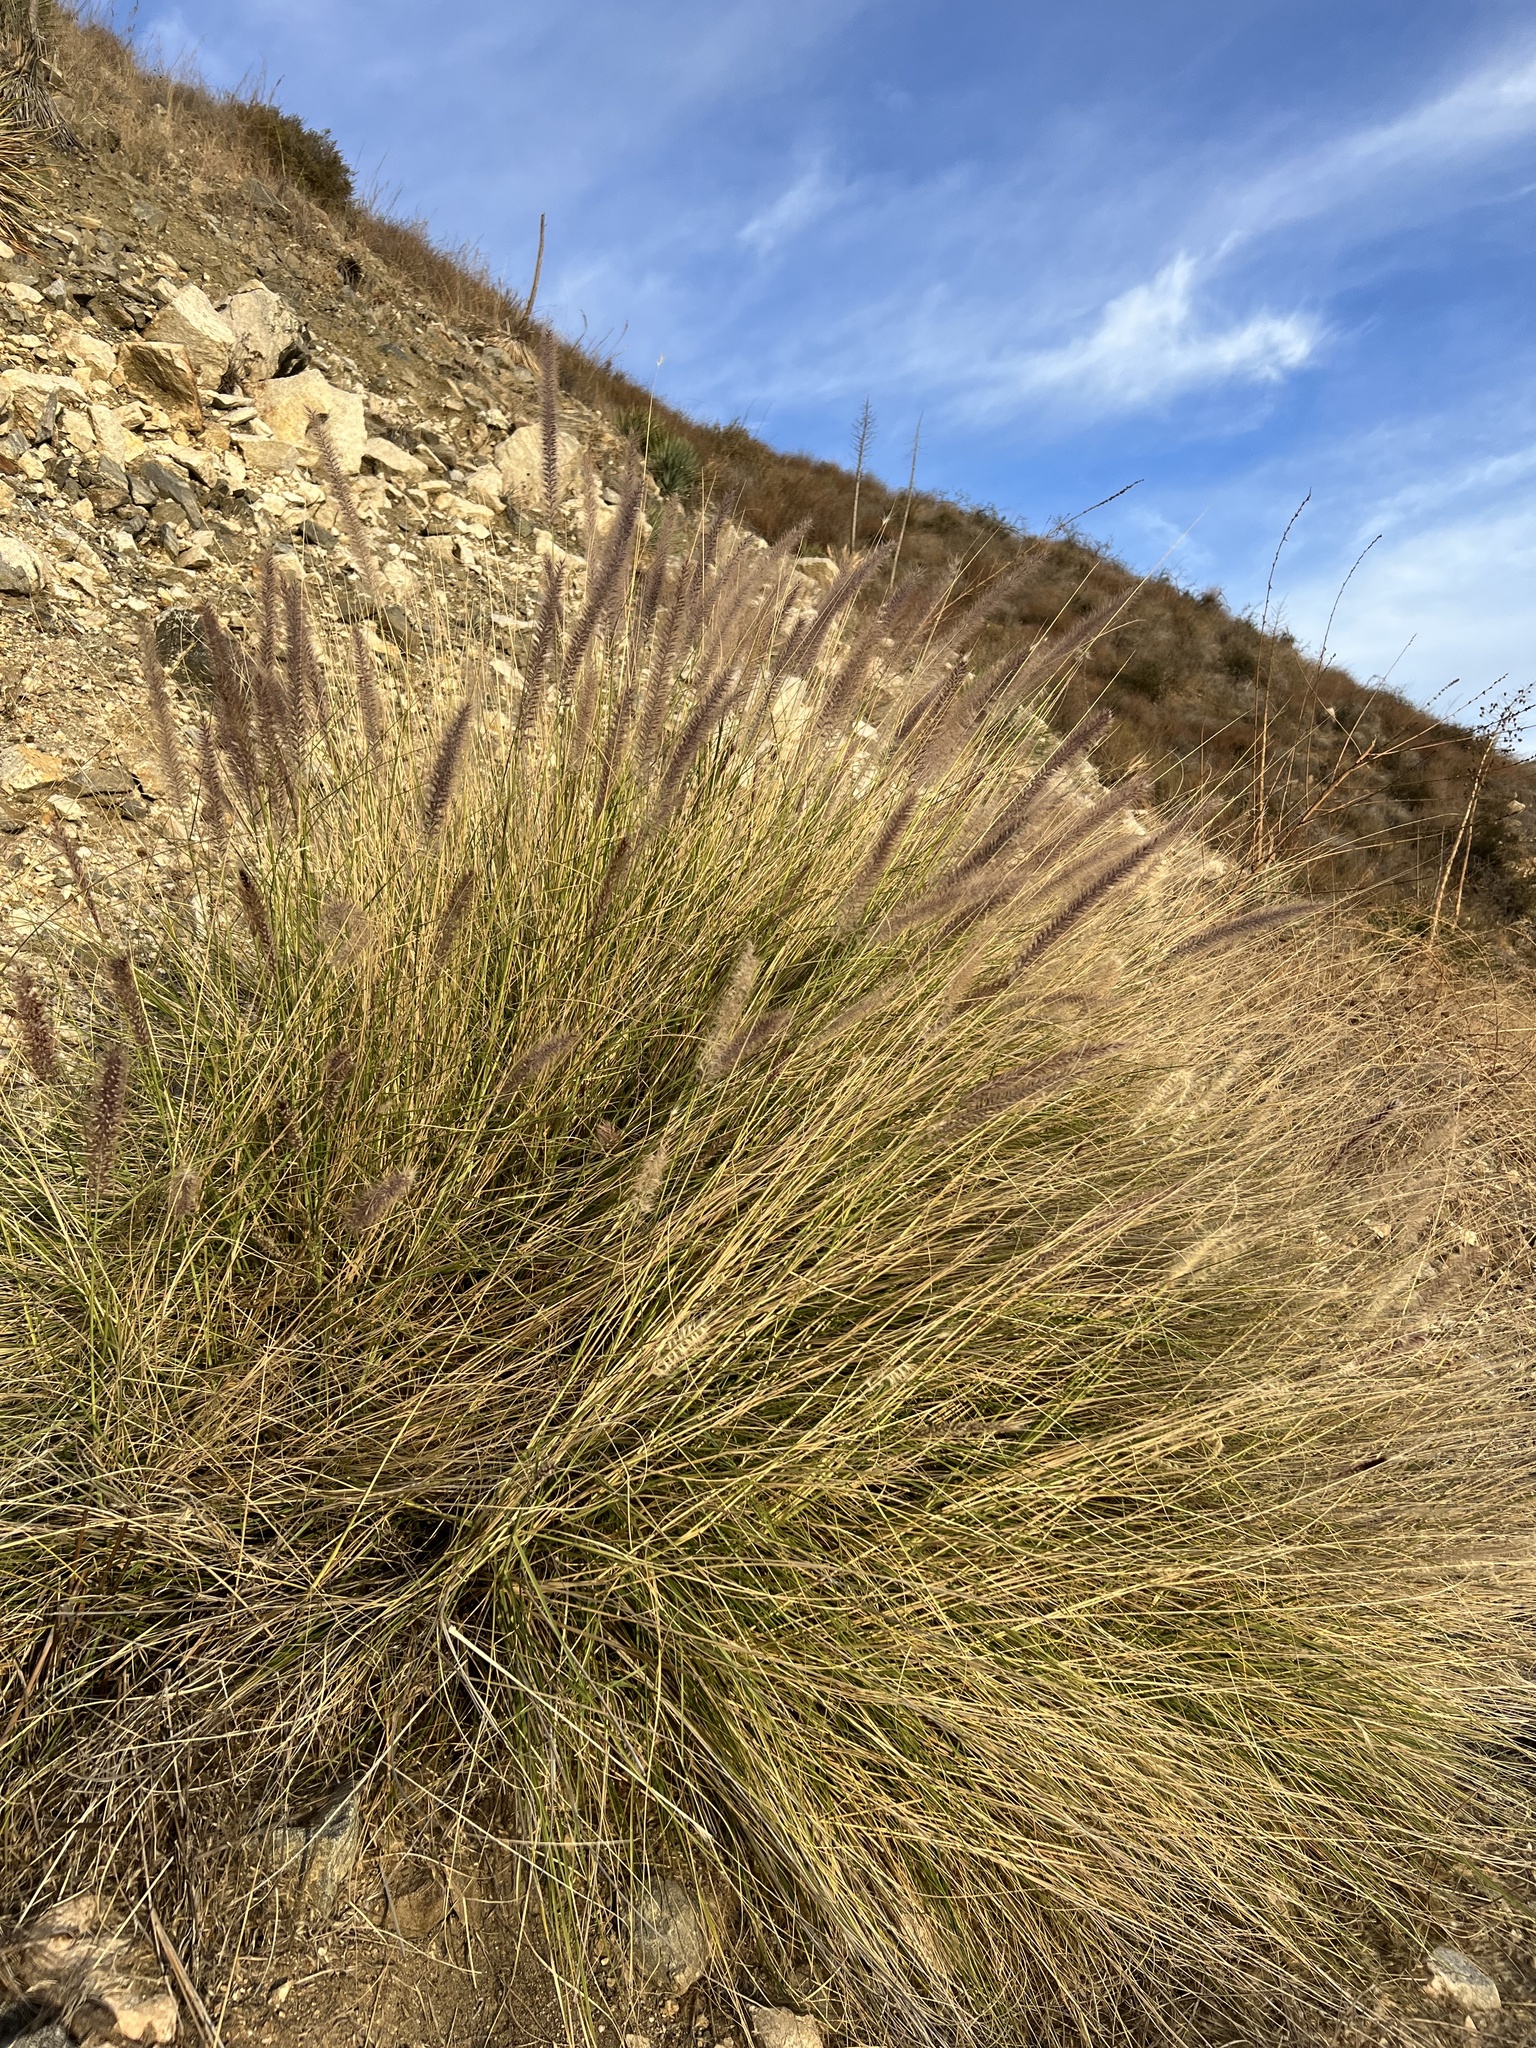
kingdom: Plantae
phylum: Tracheophyta
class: Liliopsida
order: Poales
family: Poaceae
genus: Cenchrus
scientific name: Cenchrus setaceus
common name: Crimson fountaingrass
